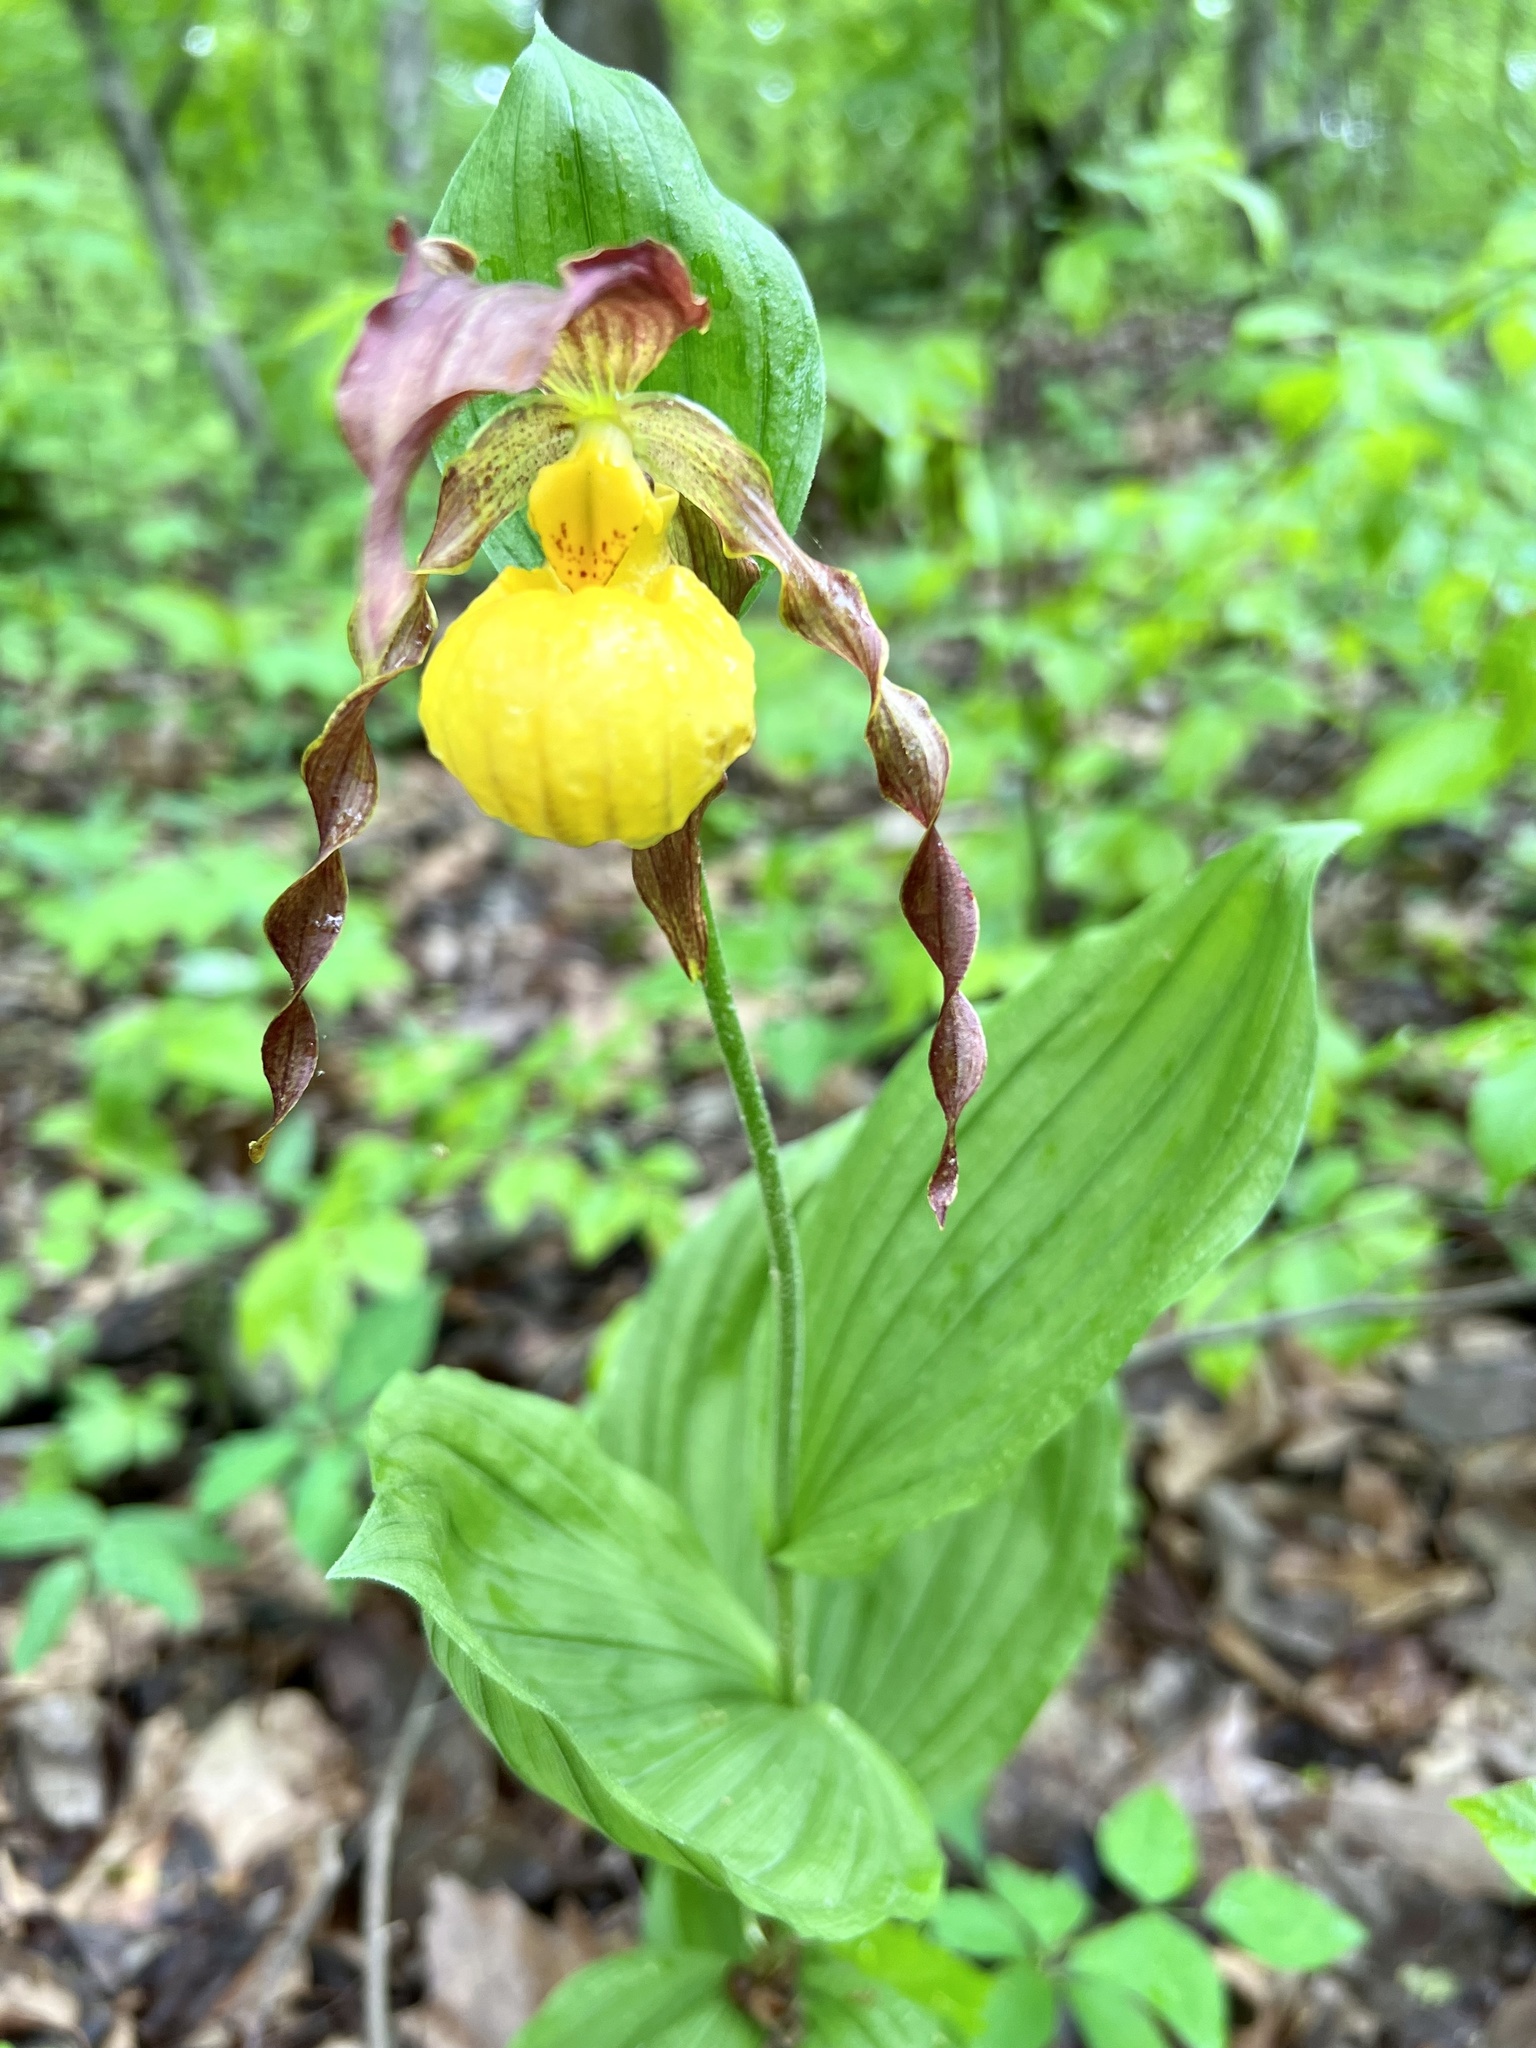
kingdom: Plantae
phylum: Tracheophyta
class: Liliopsida
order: Asparagales
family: Orchidaceae
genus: Cypripedium
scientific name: Cypripedium parviflorum
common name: American yellow lady's-slipper
